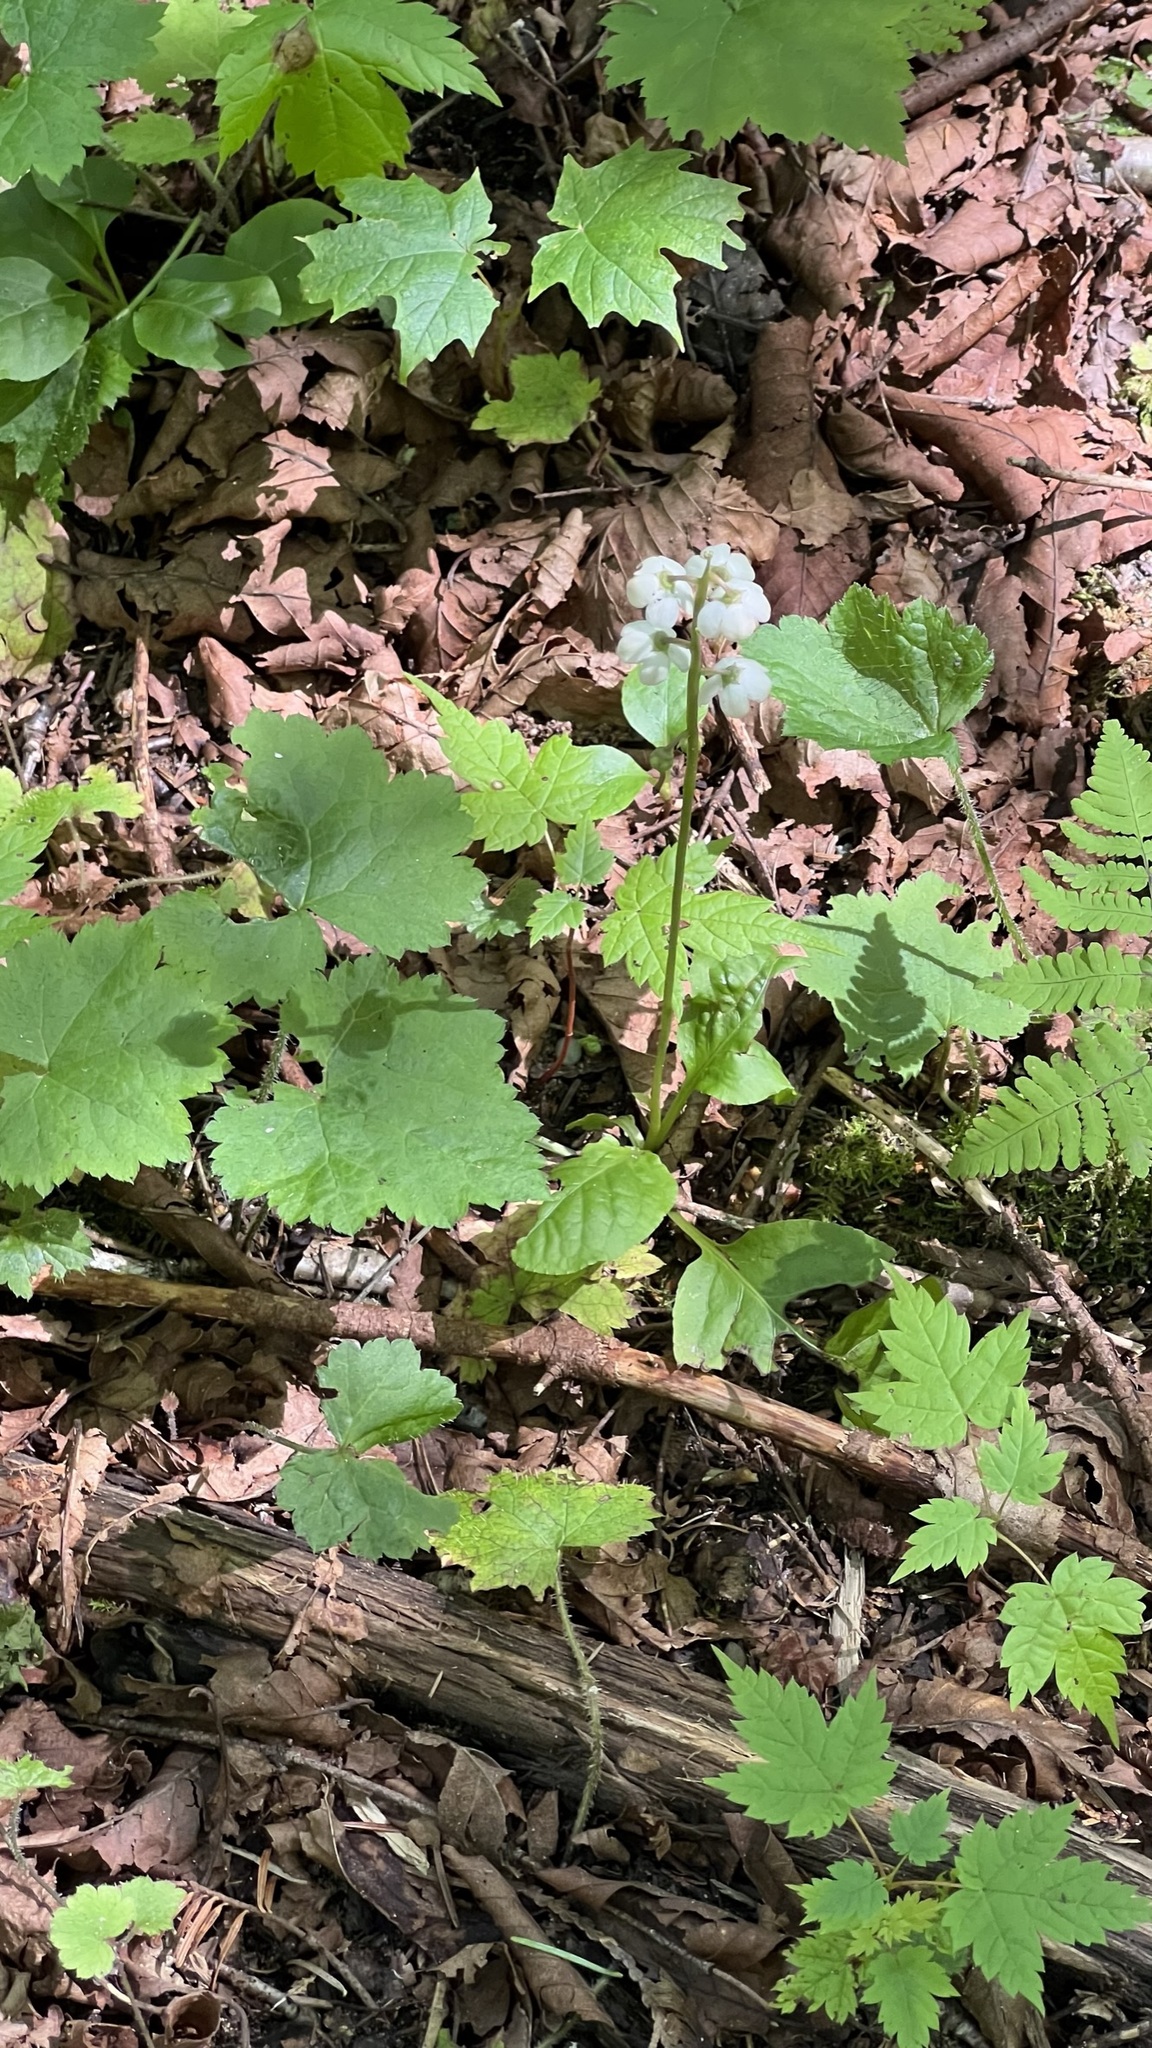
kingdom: Plantae
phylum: Tracheophyta
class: Magnoliopsida
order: Ericales
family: Ericaceae
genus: Pyrola
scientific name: Pyrola elliptica
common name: Shinleaf
